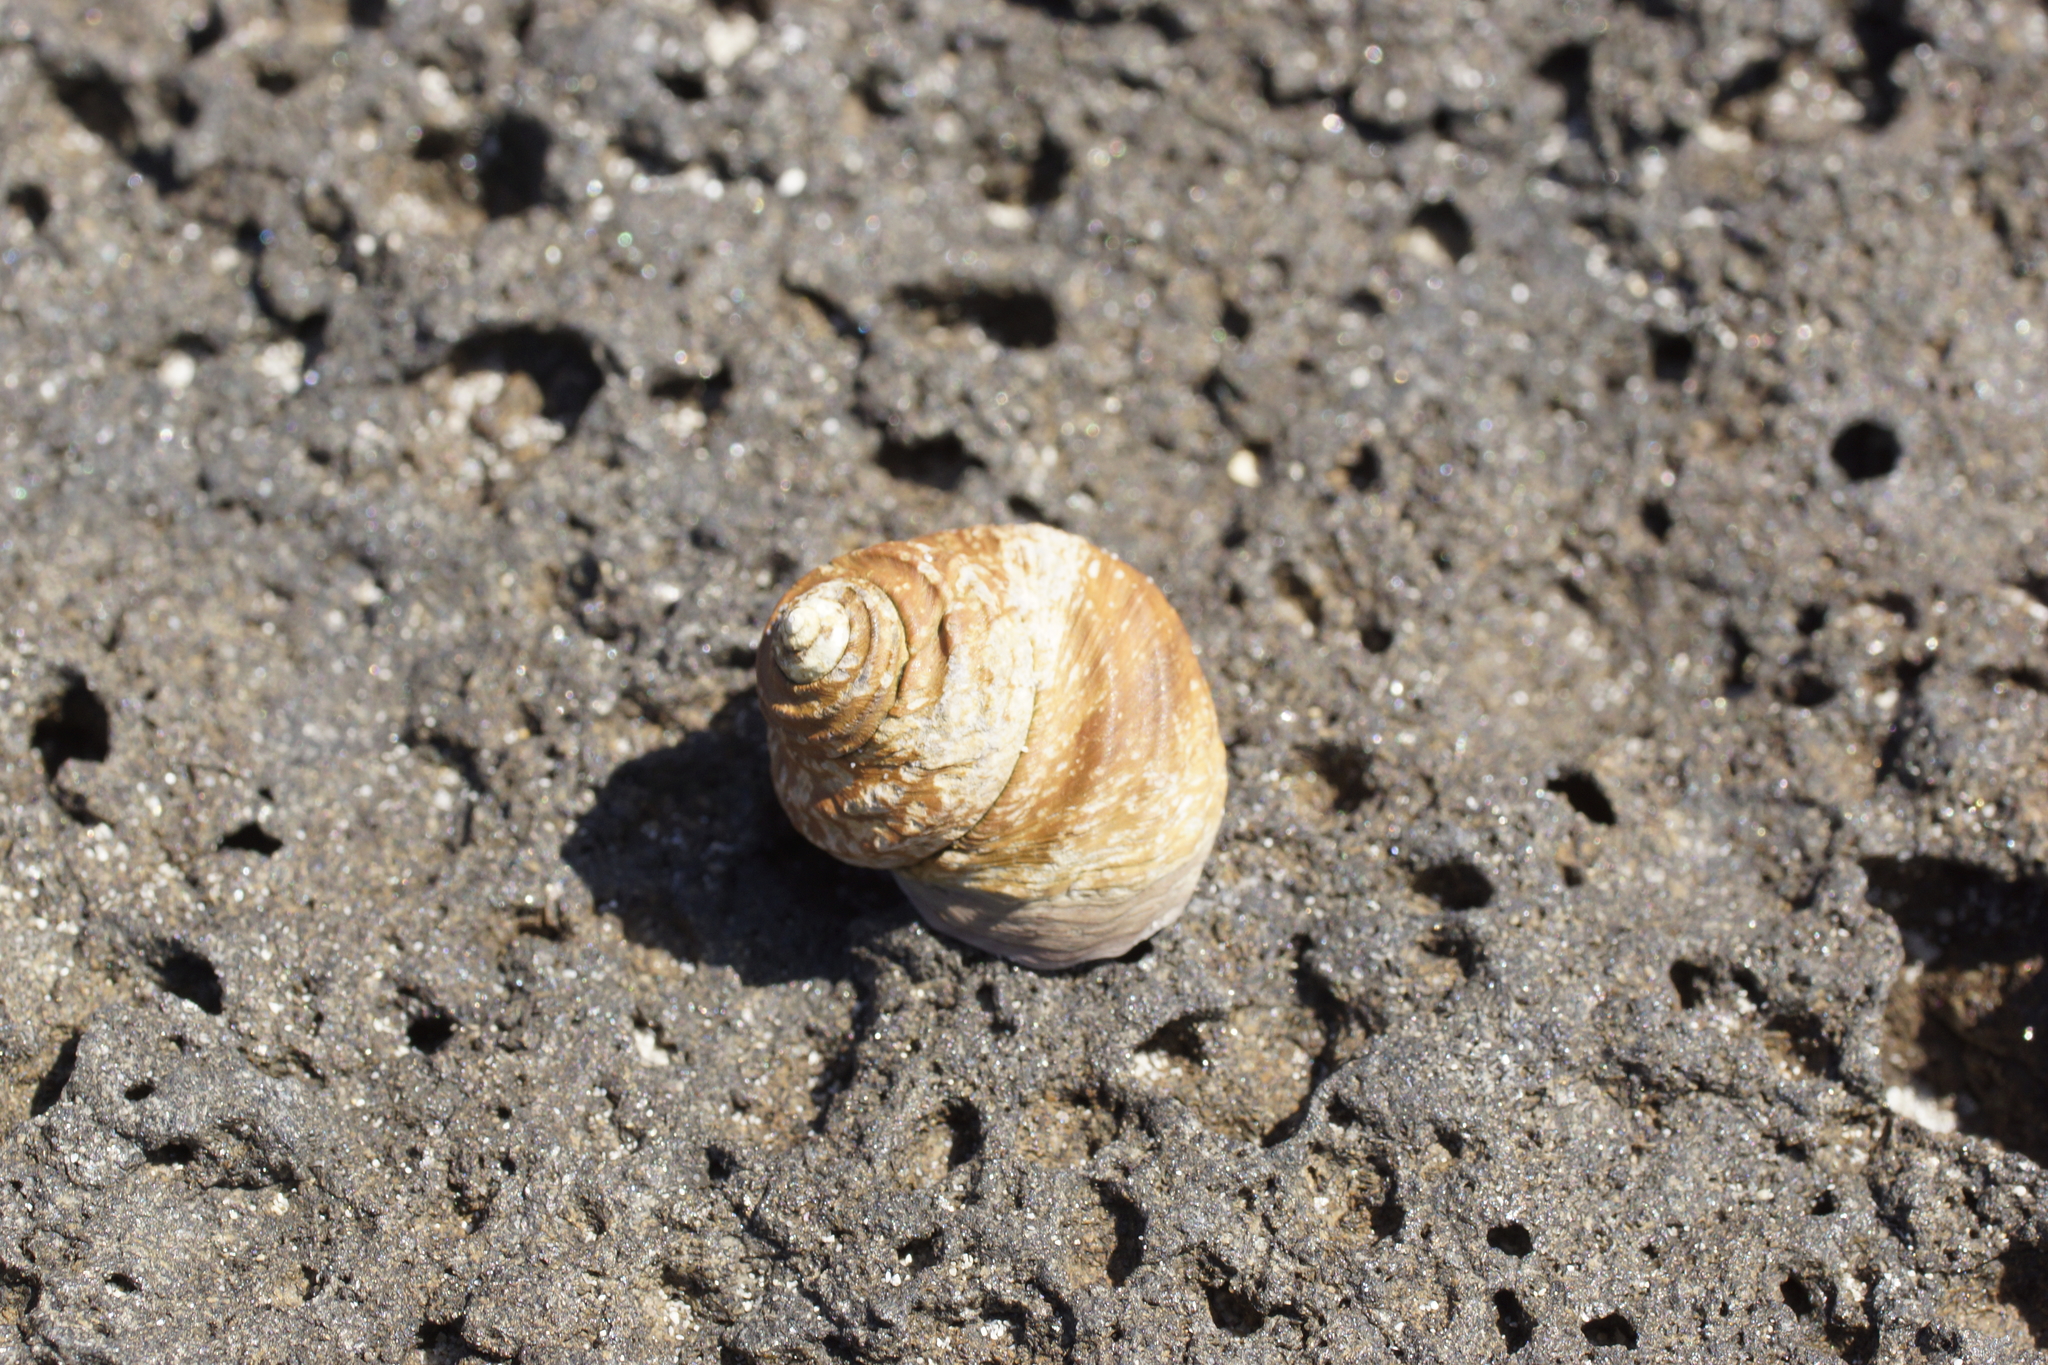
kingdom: Animalia
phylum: Mollusca
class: Gastropoda
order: Trochida
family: Trochidae
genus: Austrocochlea
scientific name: Austrocochlea constricta
